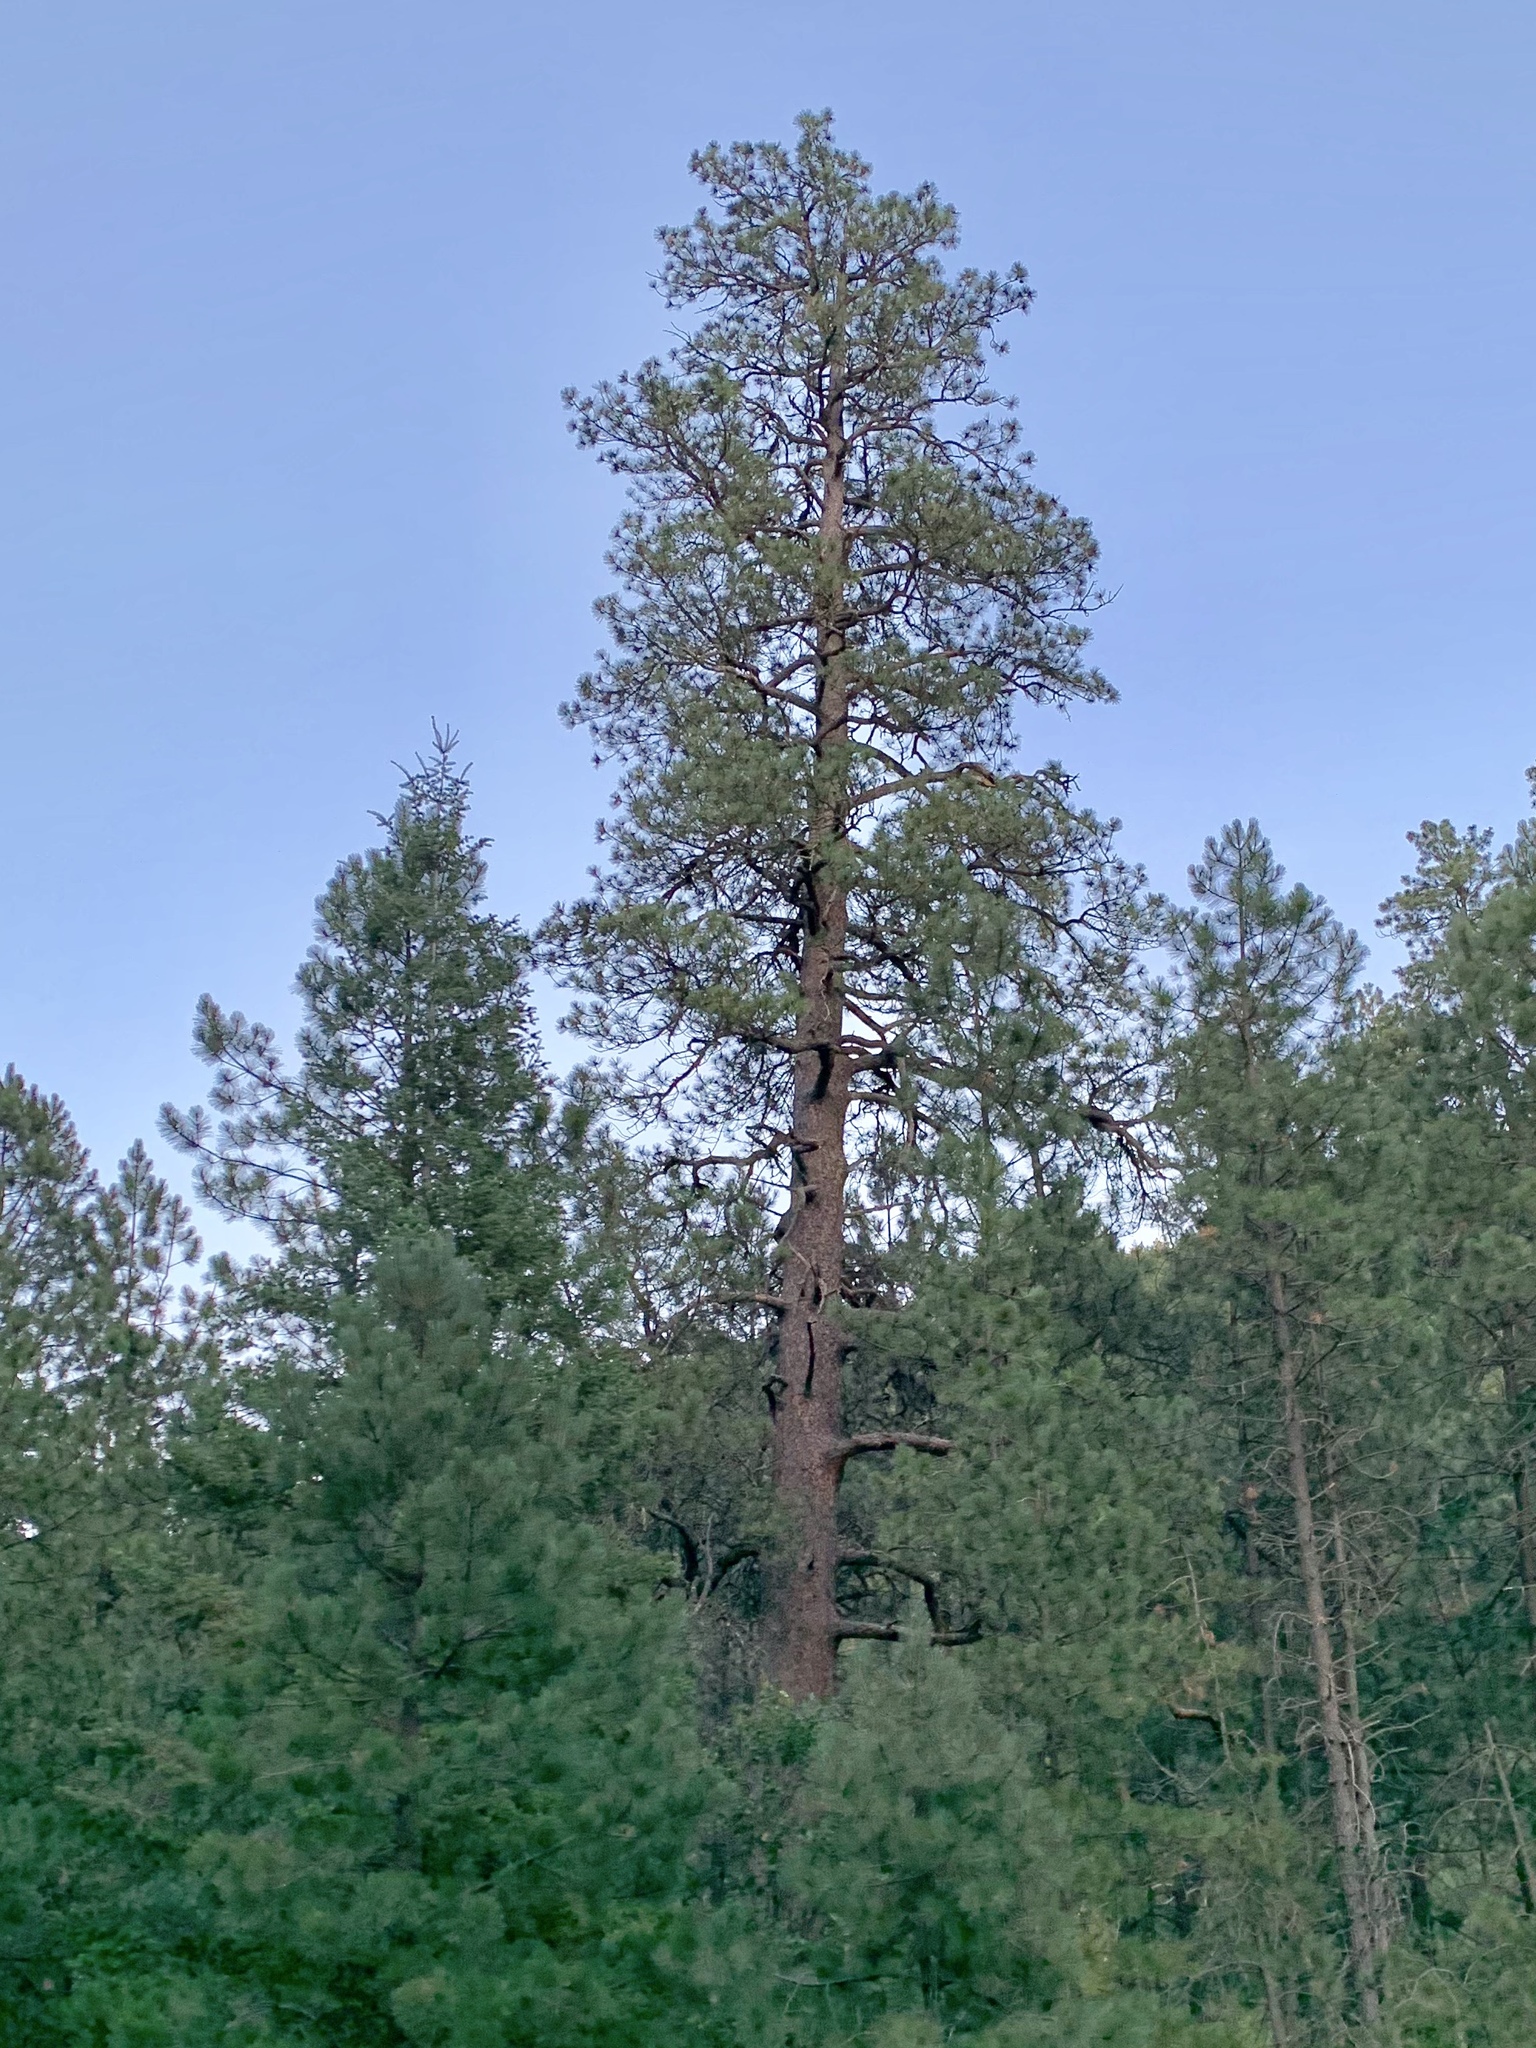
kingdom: Plantae
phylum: Tracheophyta
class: Pinopsida
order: Pinales
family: Pinaceae
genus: Pinus
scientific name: Pinus ponderosa
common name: Western yellow-pine
